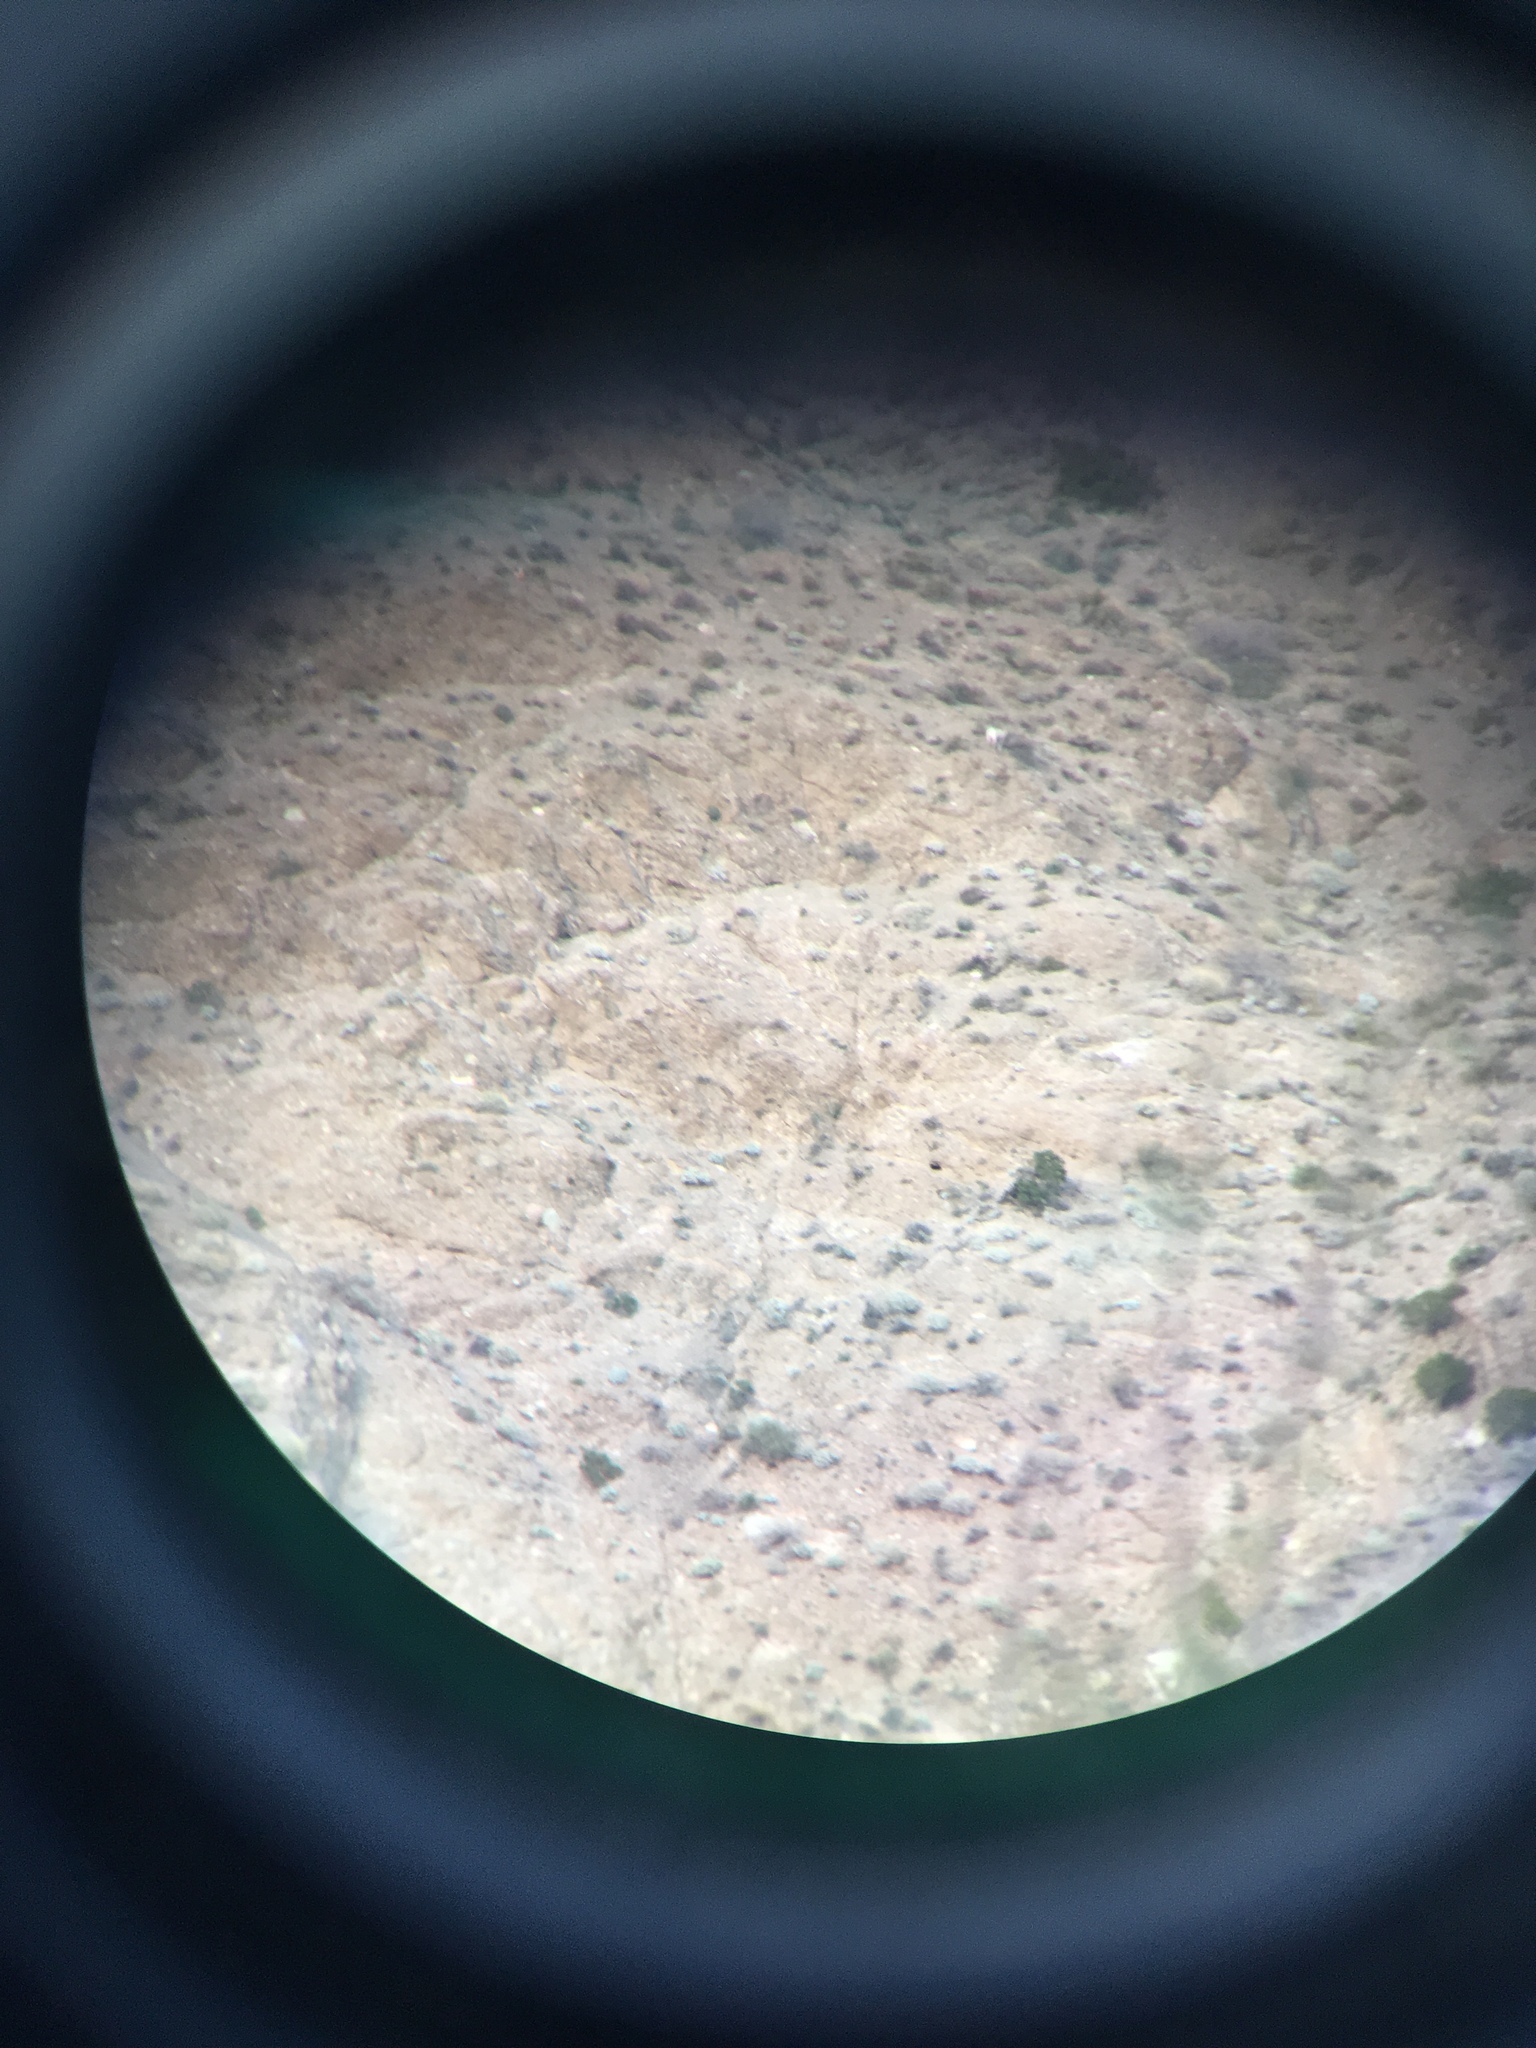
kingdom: Animalia
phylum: Chordata
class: Mammalia
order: Artiodactyla
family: Bovidae
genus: Ovis
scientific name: Ovis canadensis
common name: Bighorn sheep
